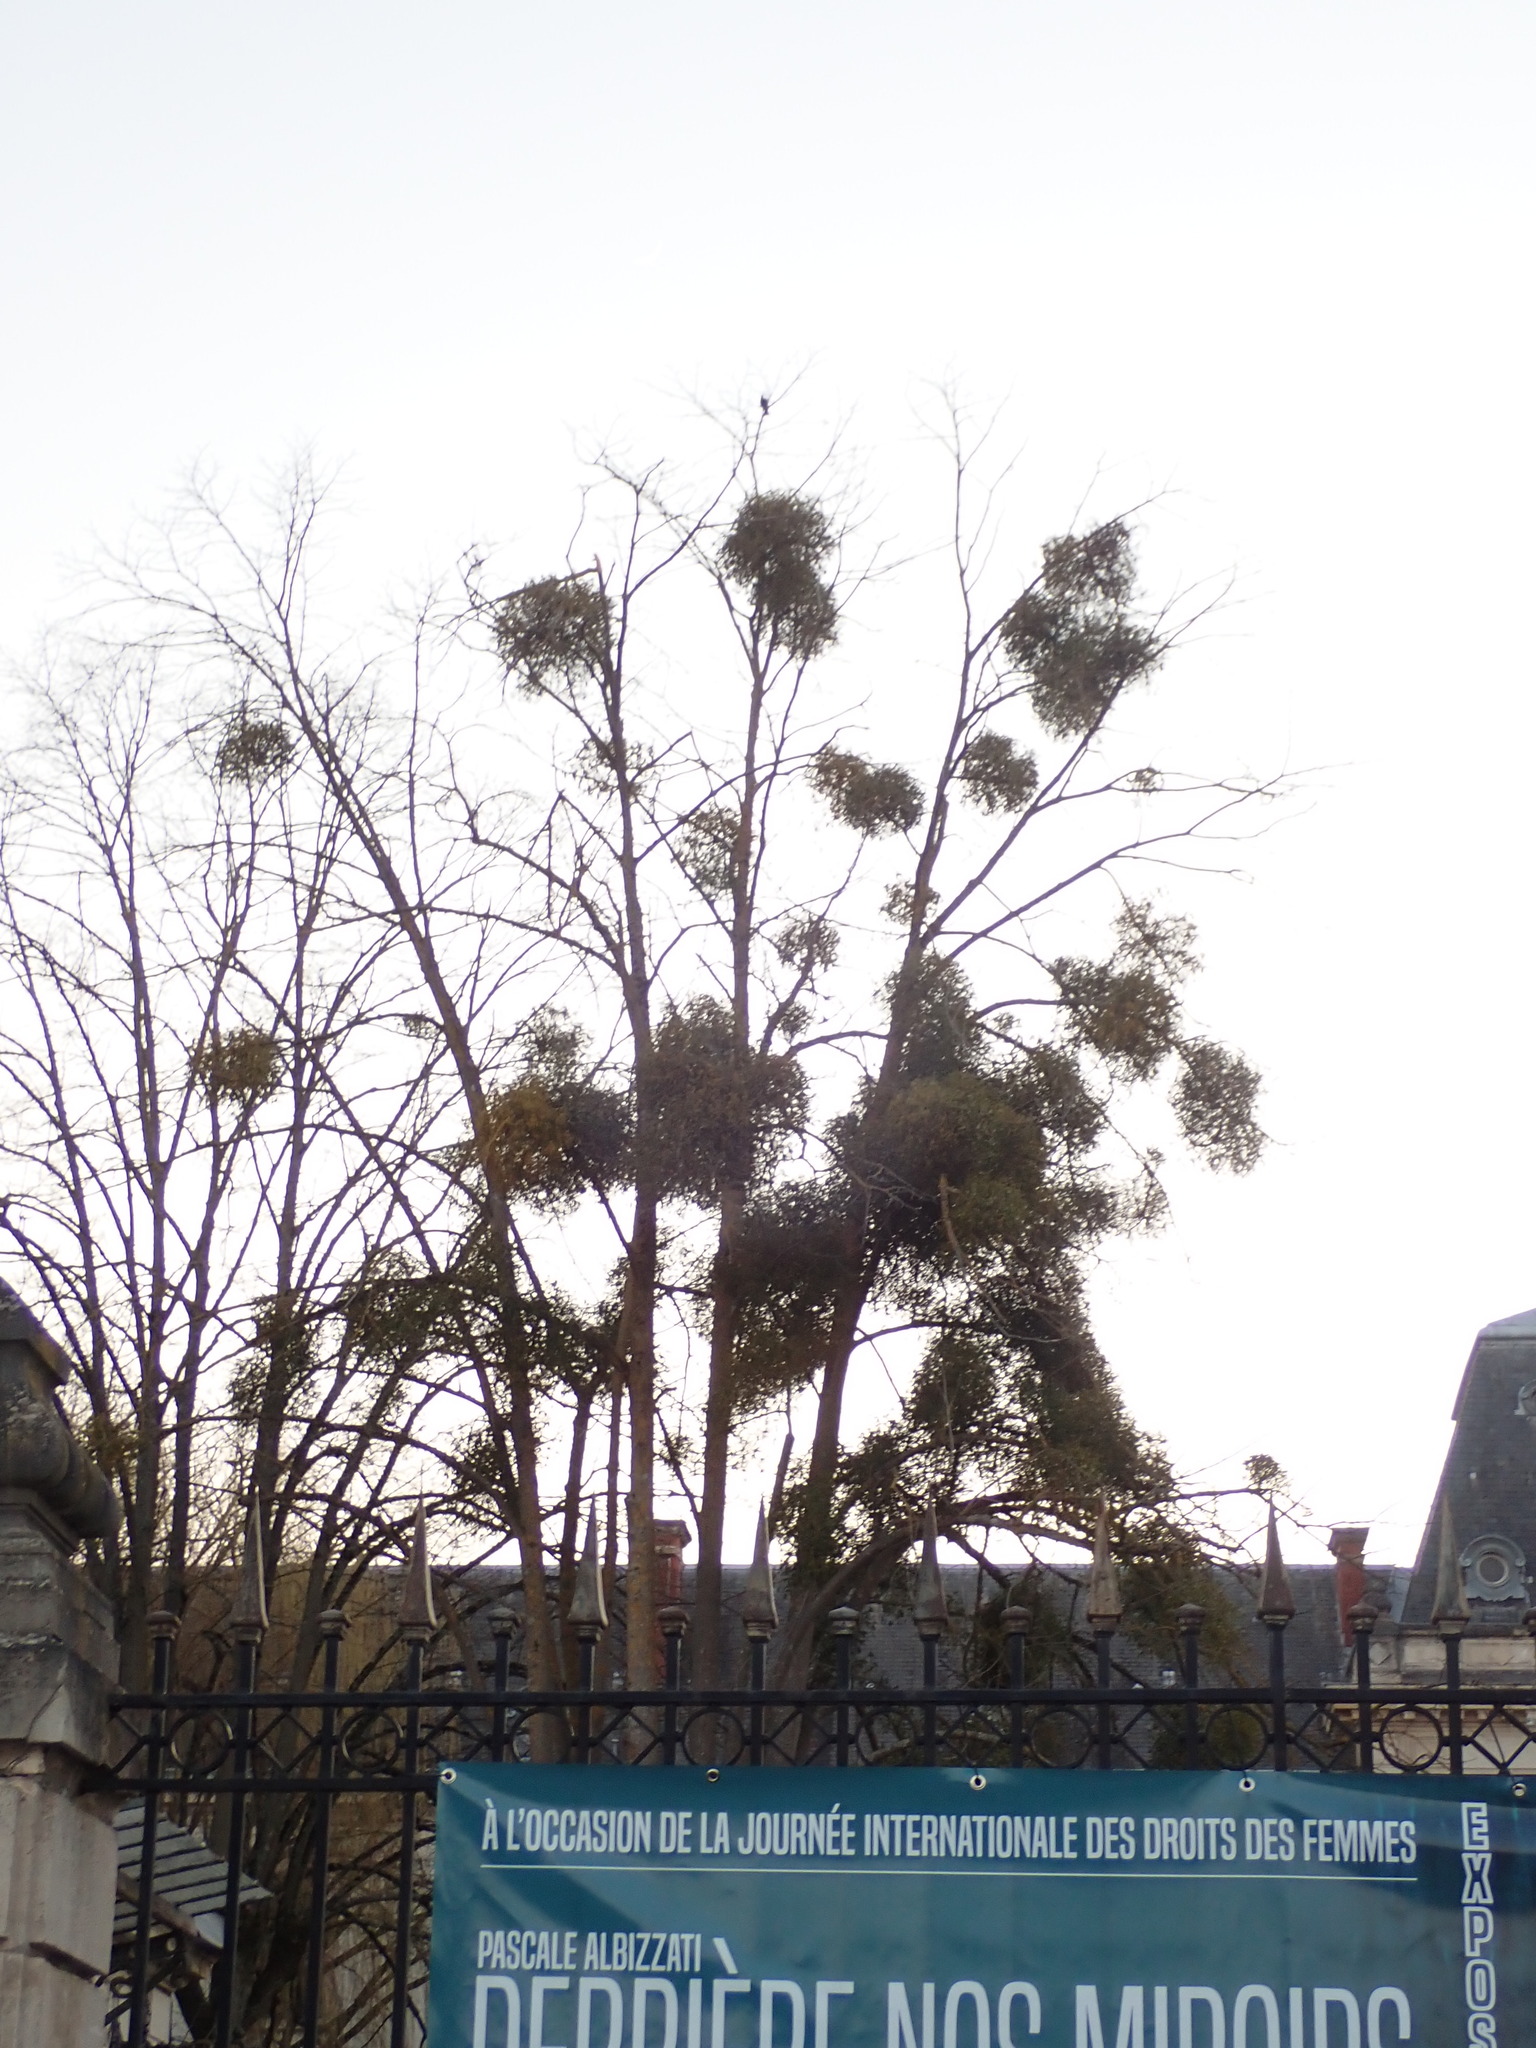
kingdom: Plantae
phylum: Tracheophyta
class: Magnoliopsida
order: Santalales
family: Viscaceae
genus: Viscum
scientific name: Viscum album
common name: Mistletoe
